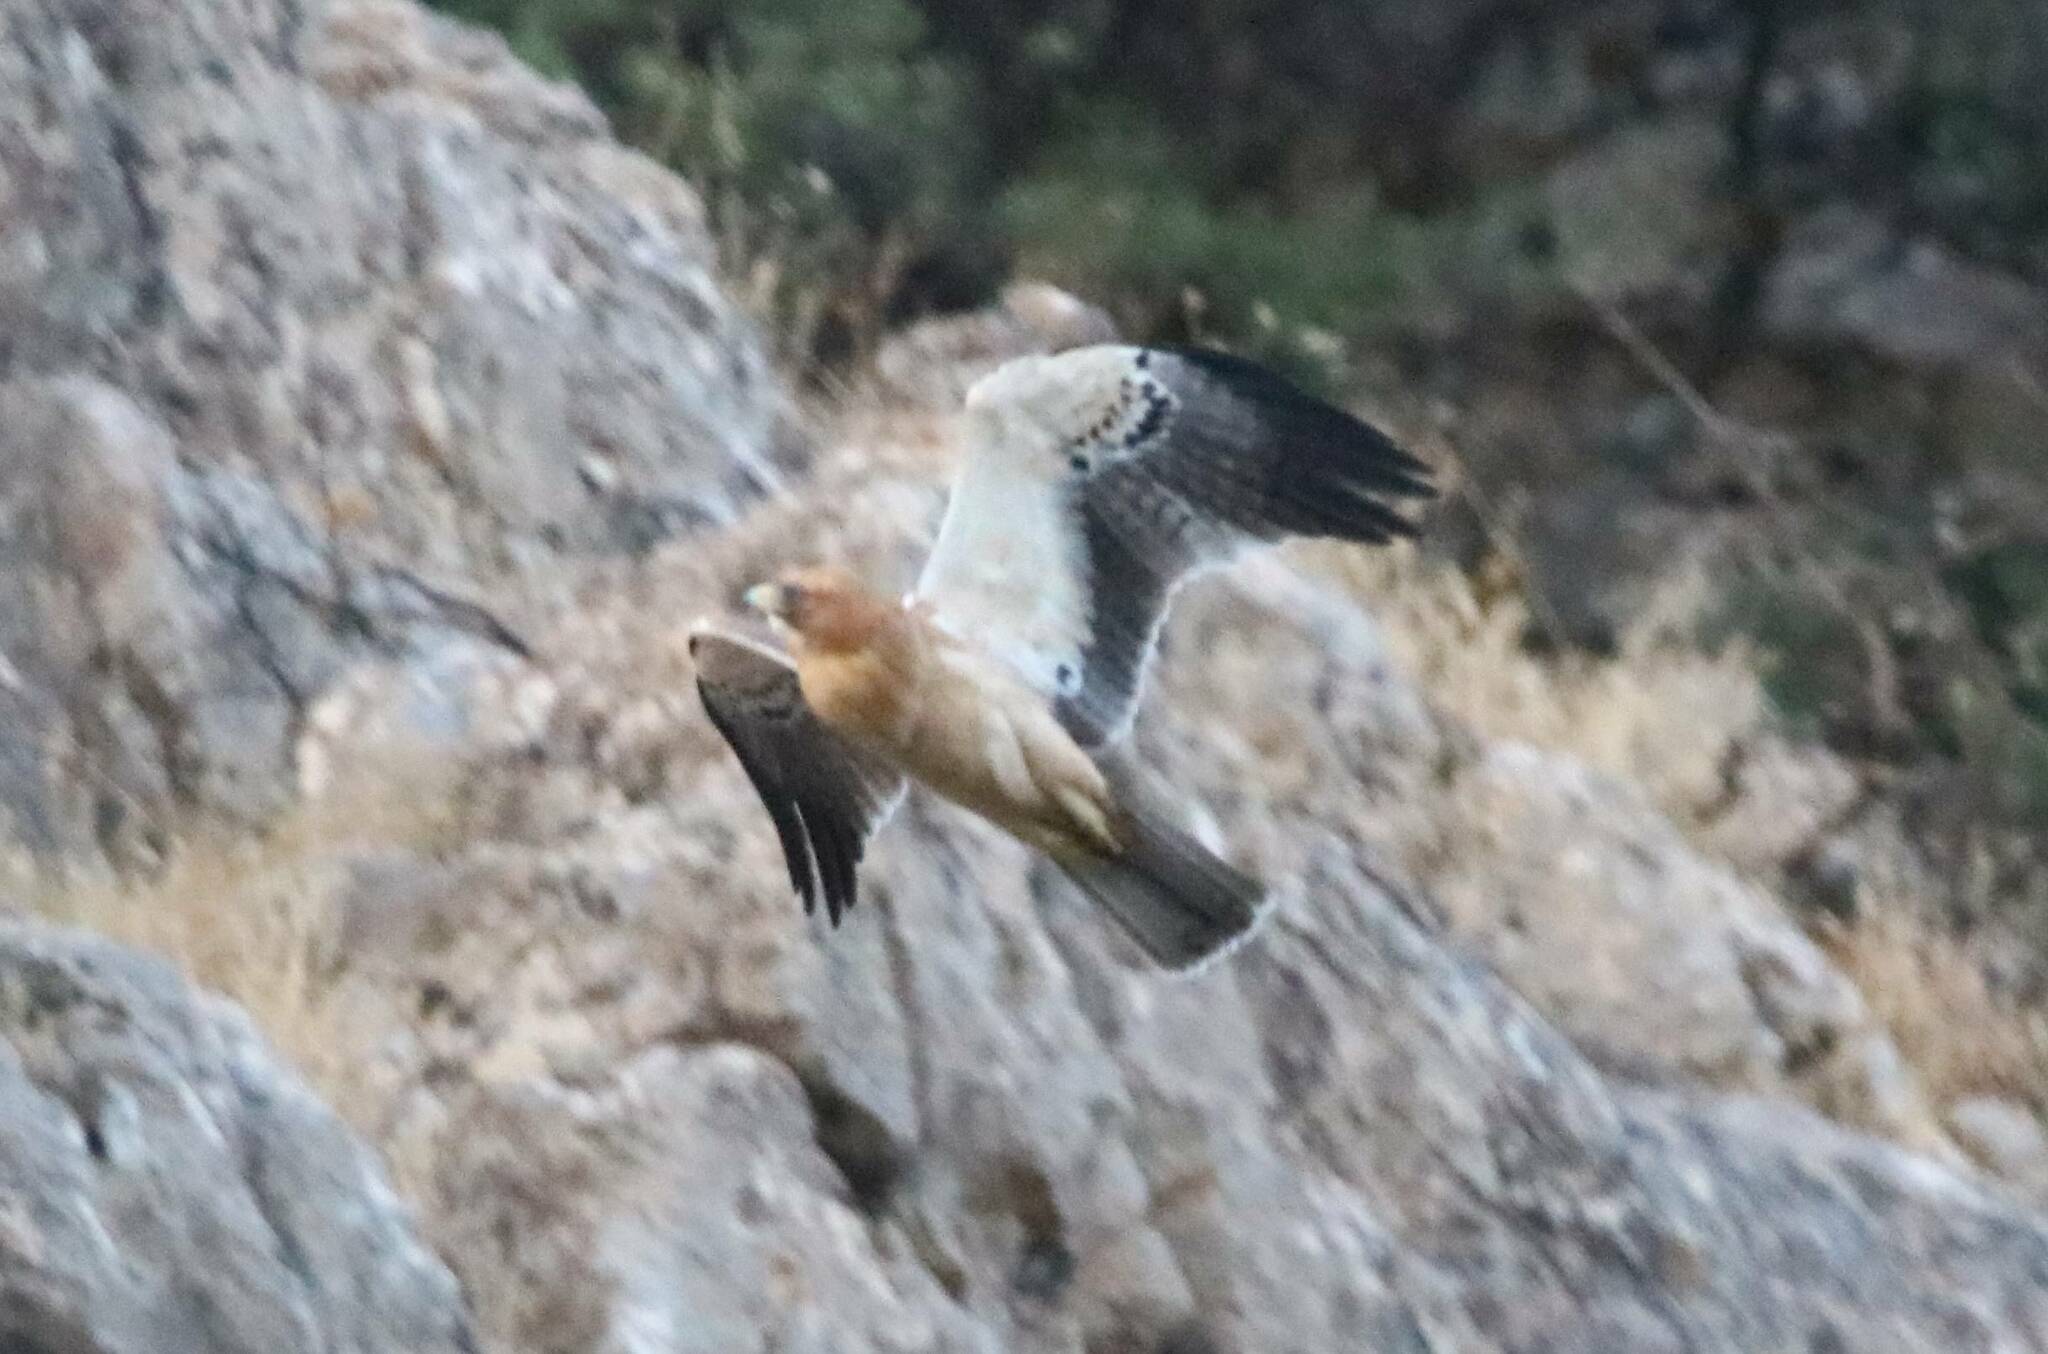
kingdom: Animalia
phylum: Chordata
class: Aves
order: Accipitriformes
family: Accipitridae
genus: Hieraaetus
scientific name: Hieraaetus pennatus
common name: Booted eagle
